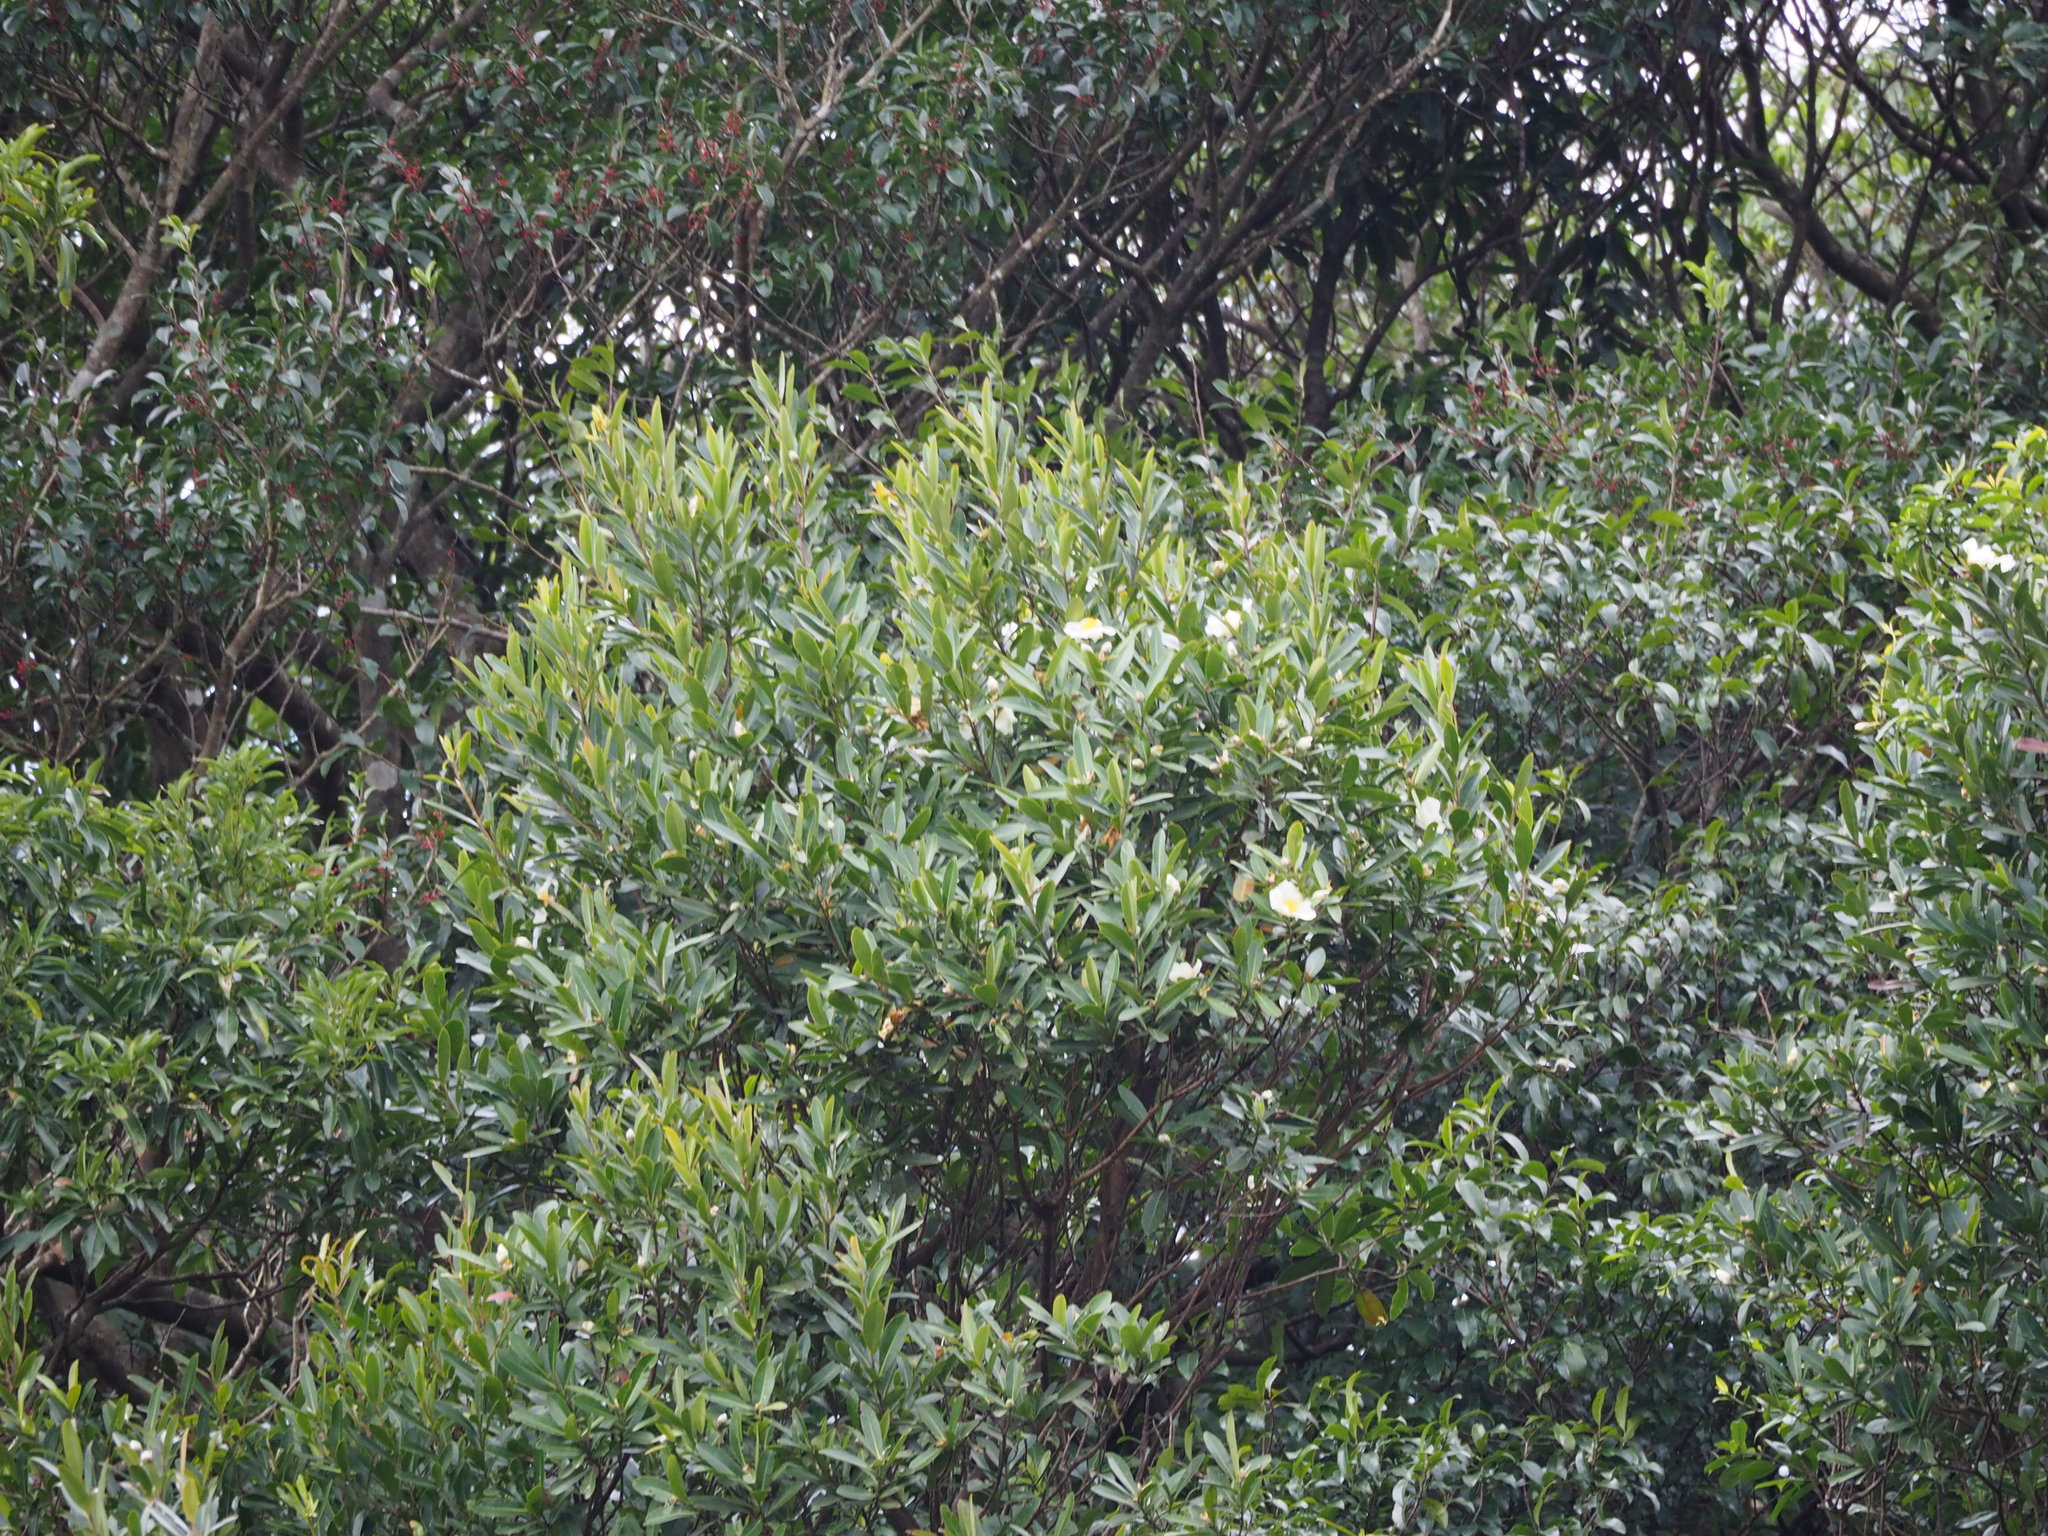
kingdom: Plantae
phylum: Tracheophyta
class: Magnoliopsida
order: Ericales
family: Theaceae
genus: Polyspora
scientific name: Polyspora axillaris
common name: Fried egg tree
